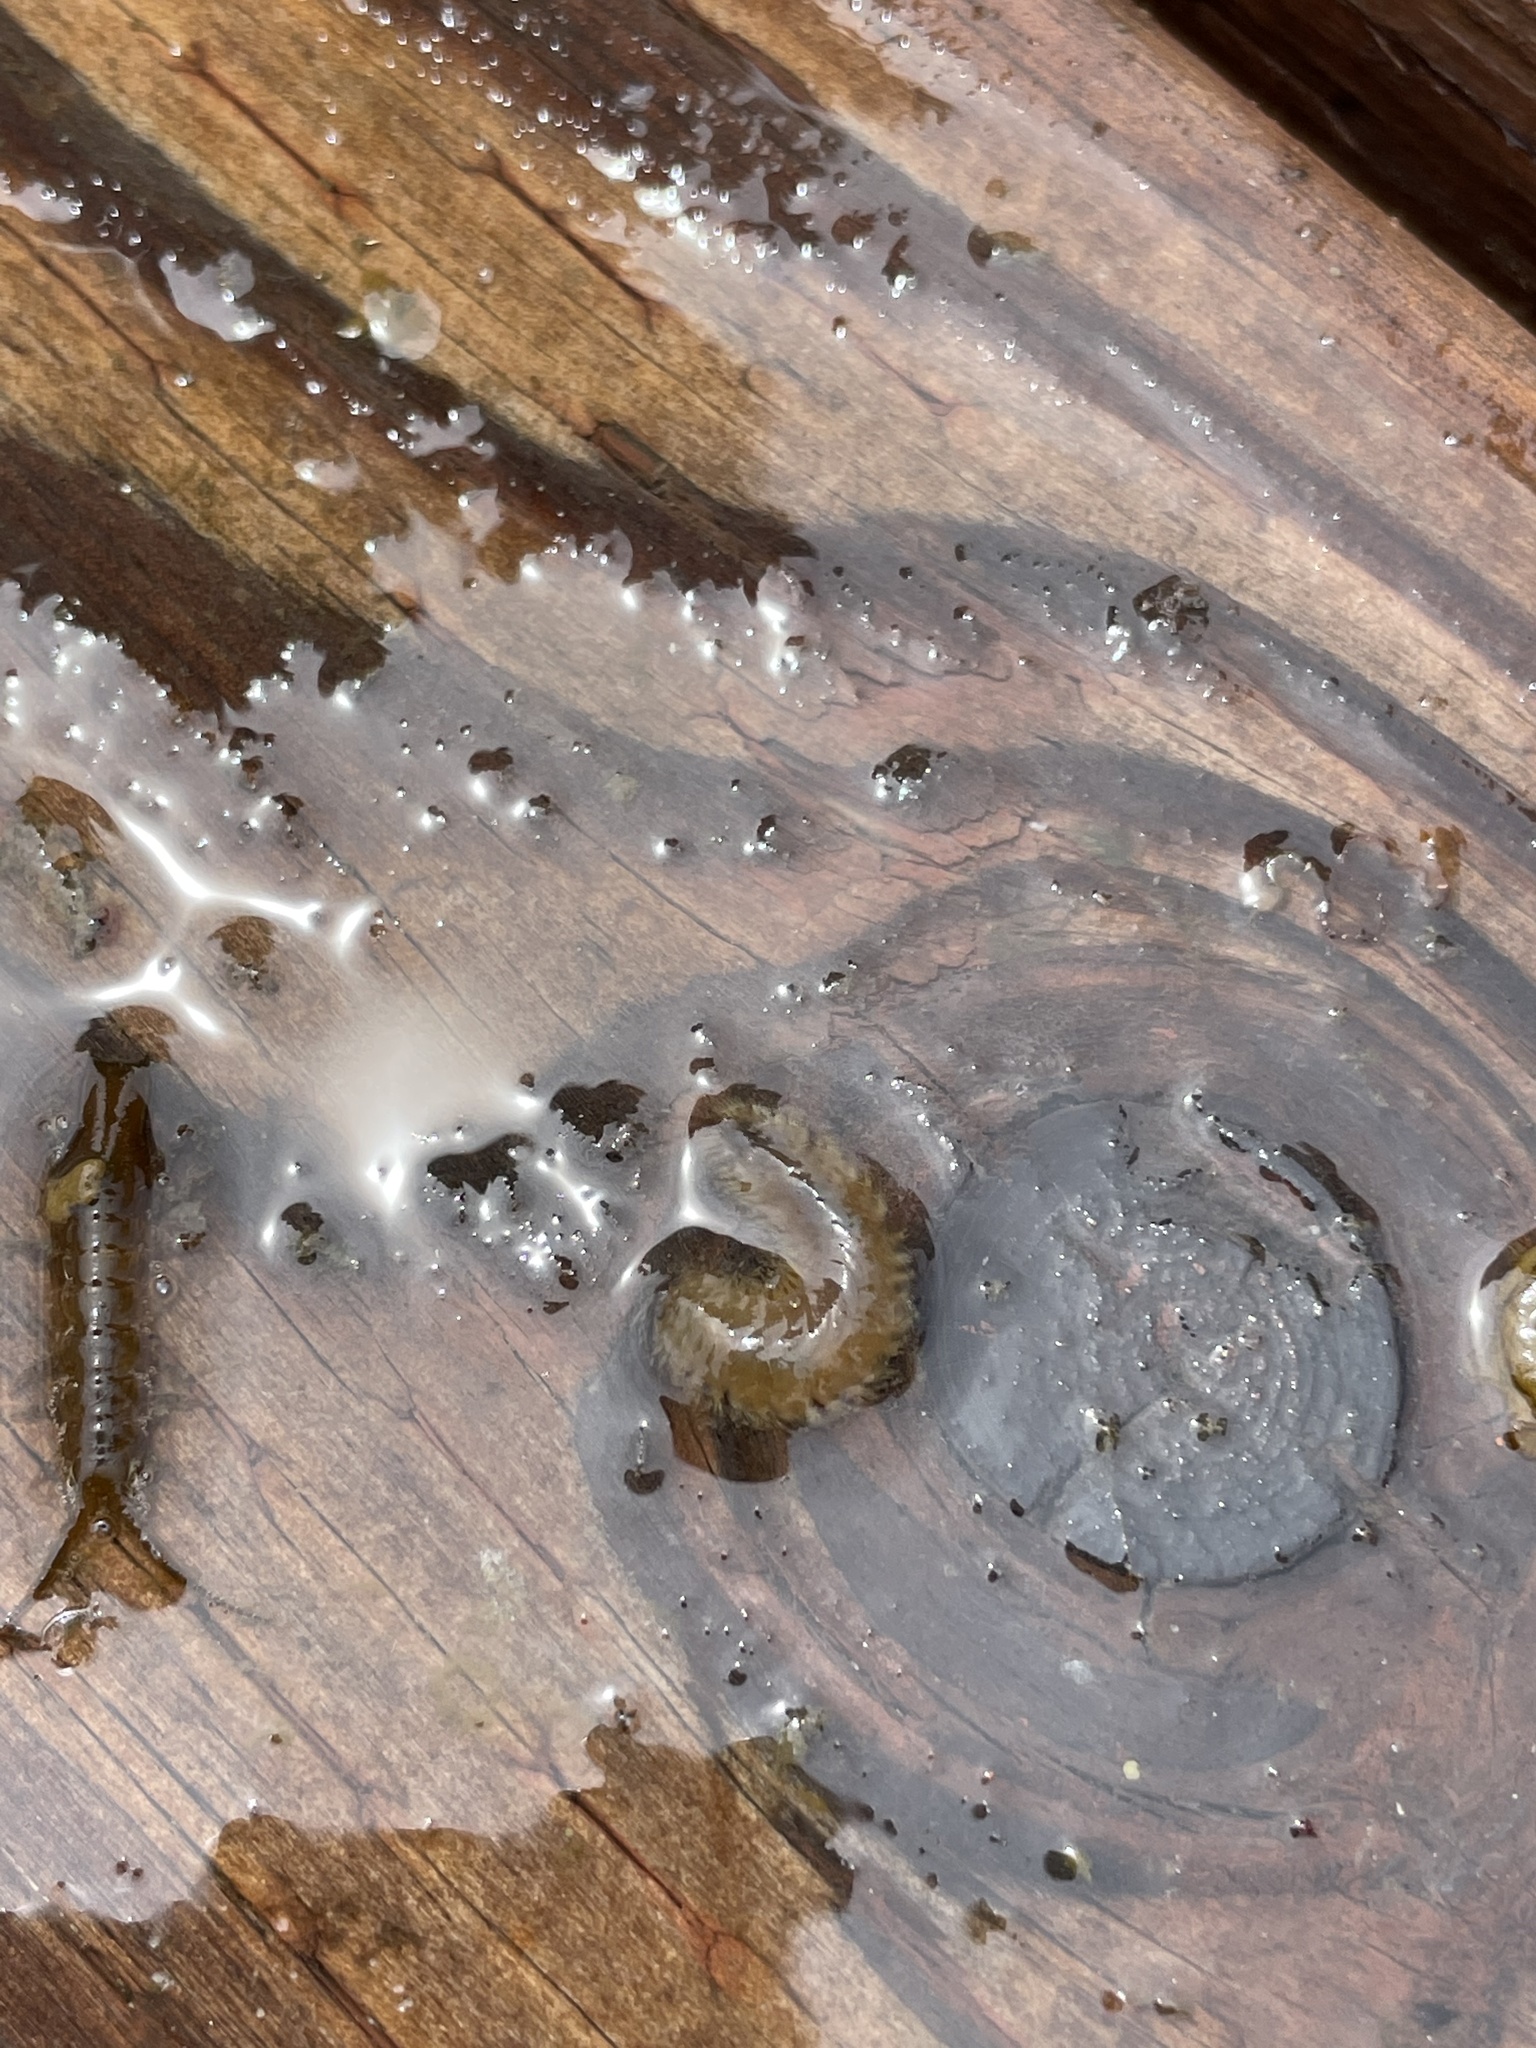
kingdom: Animalia
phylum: Arthropoda
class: Malacostraca
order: Isopoda
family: Idoteidae
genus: Pentidotea
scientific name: Pentidotea resecata
